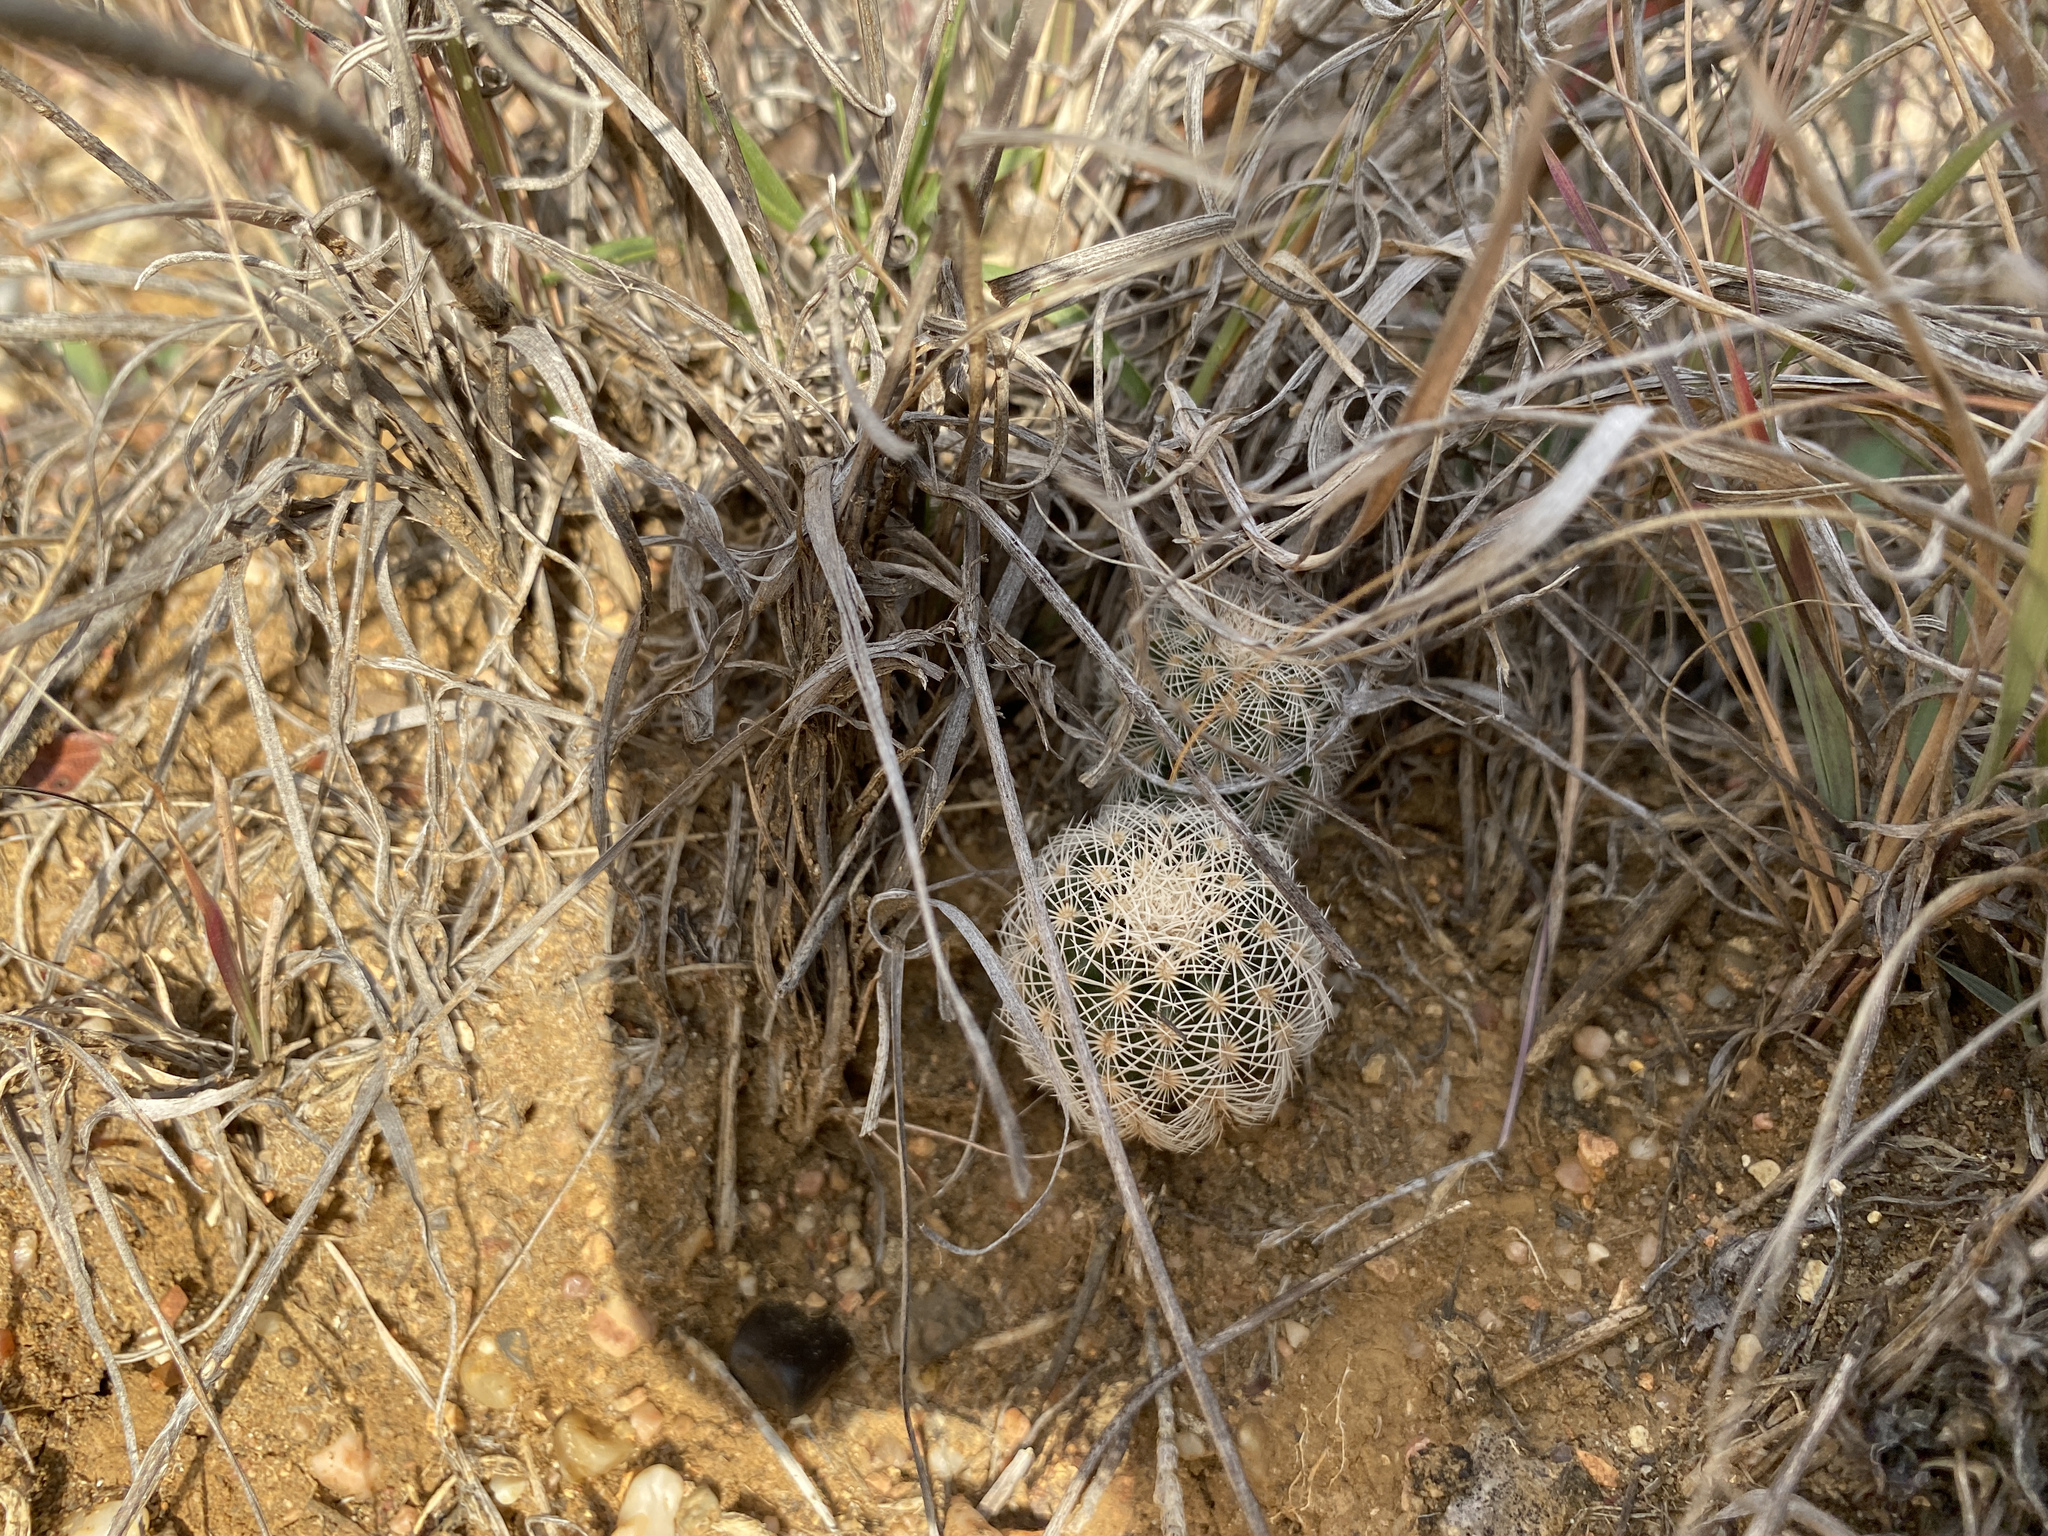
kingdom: Plantae
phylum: Tracheophyta
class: Magnoliopsida
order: Caryophyllales
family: Cactaceae
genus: Echinocereus
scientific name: Echinocereus reichenbachii
